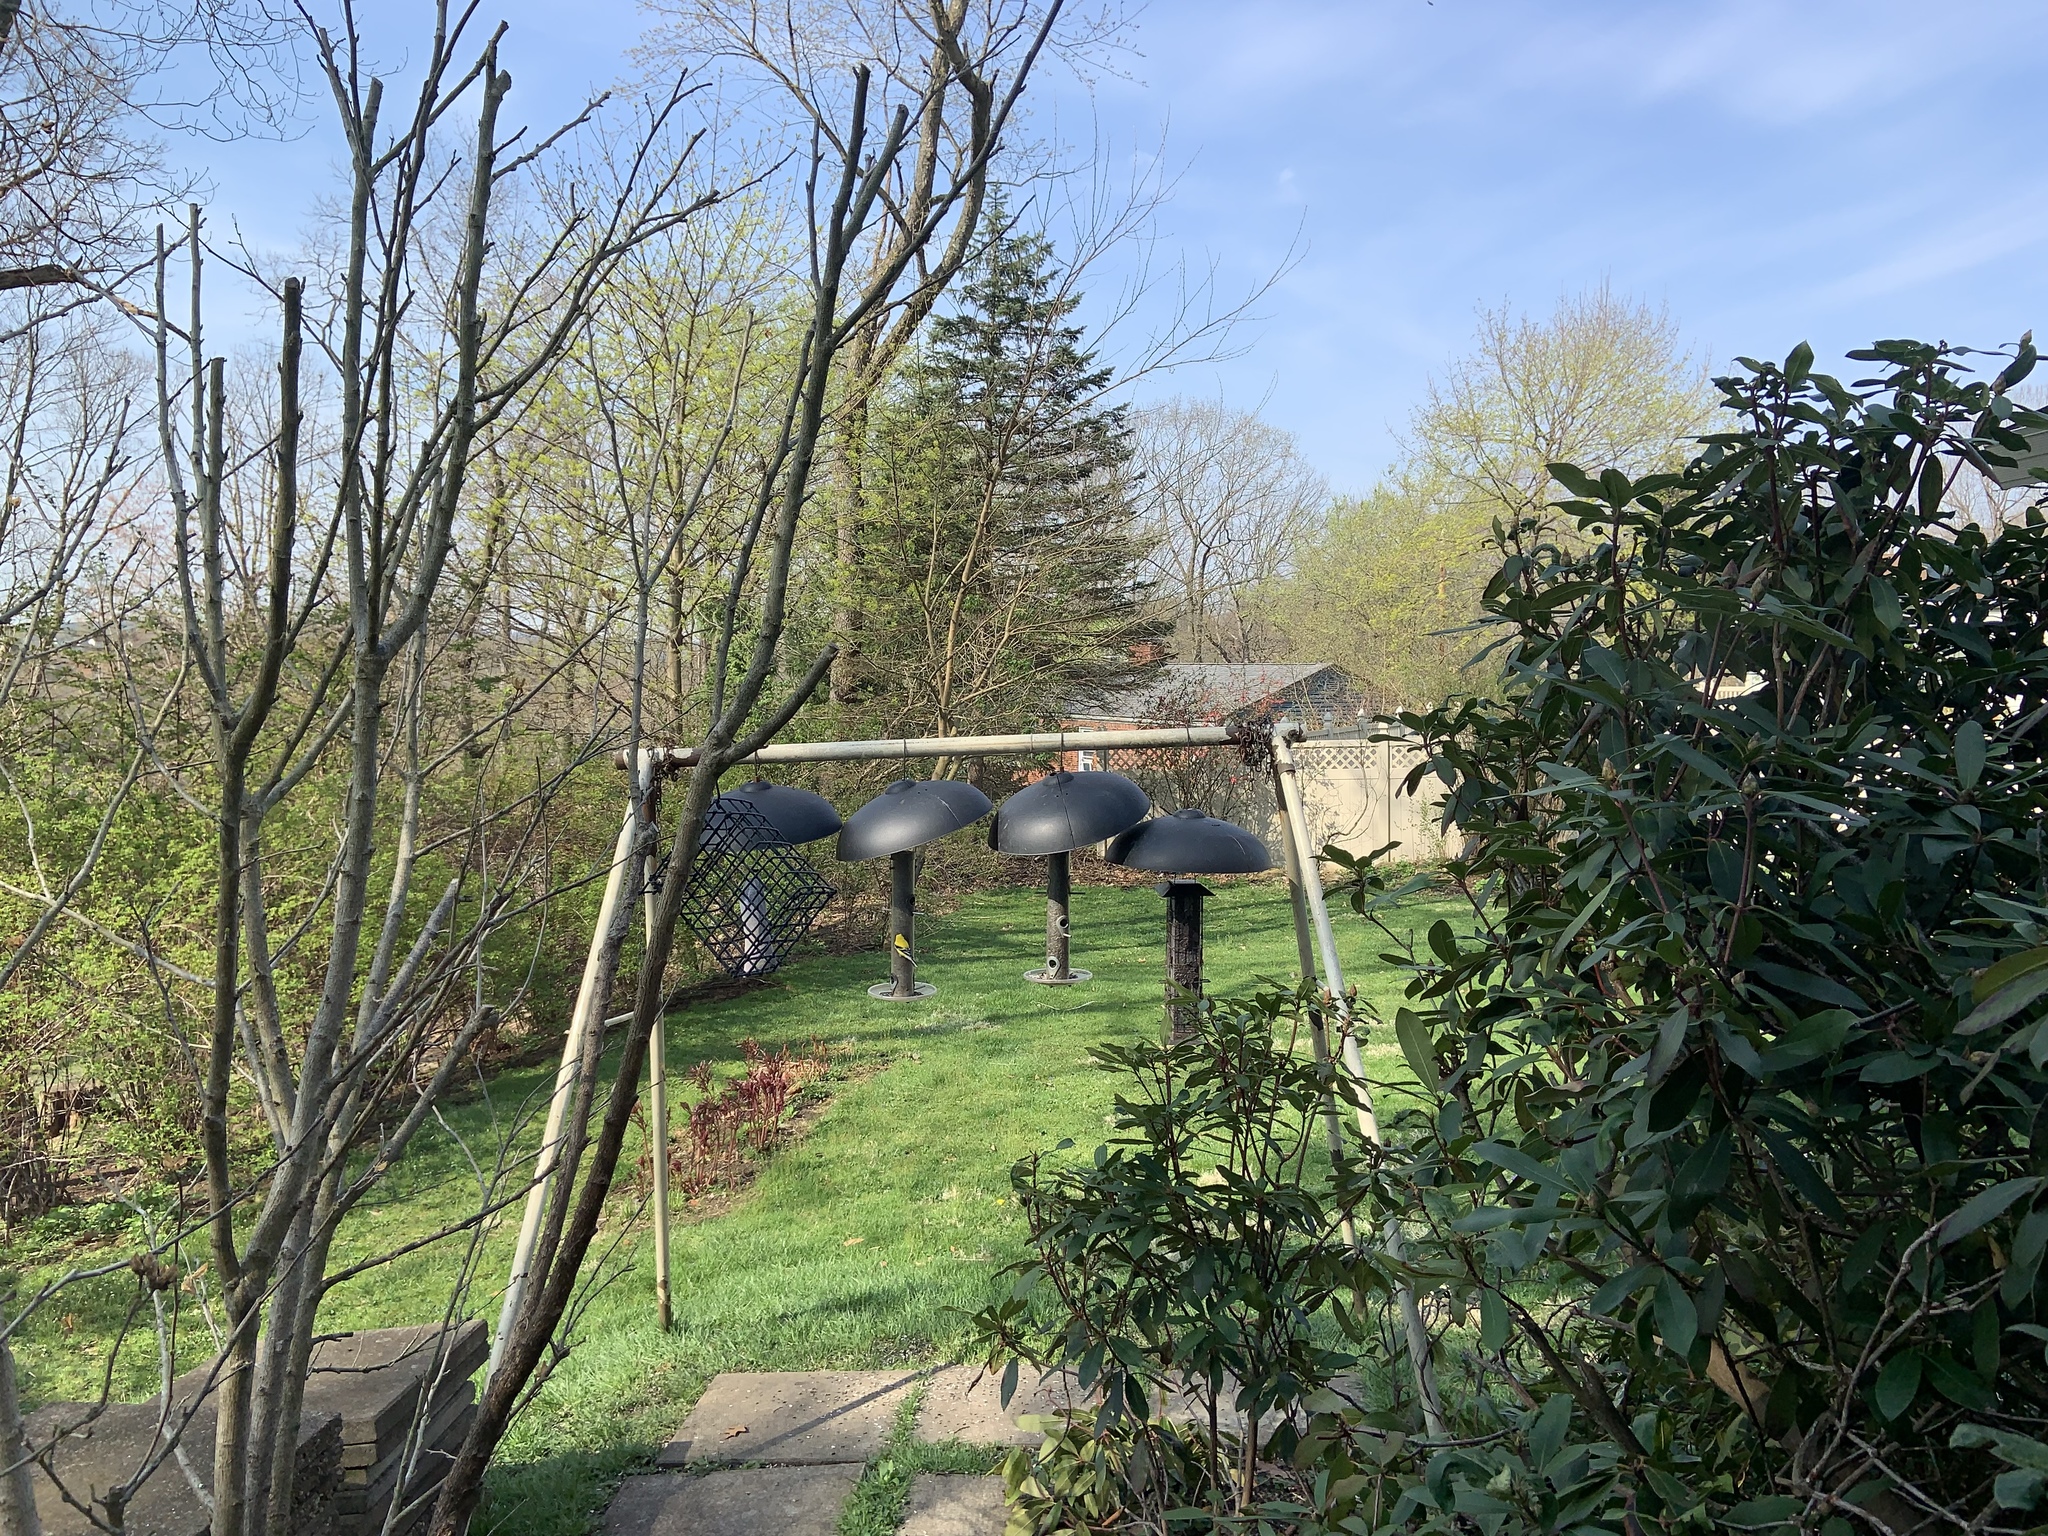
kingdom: Animalia
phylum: Chordata
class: Aves
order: Passeriformes
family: Fringillidae
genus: Spinus
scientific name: Spinus tristis
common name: American goldfinch
